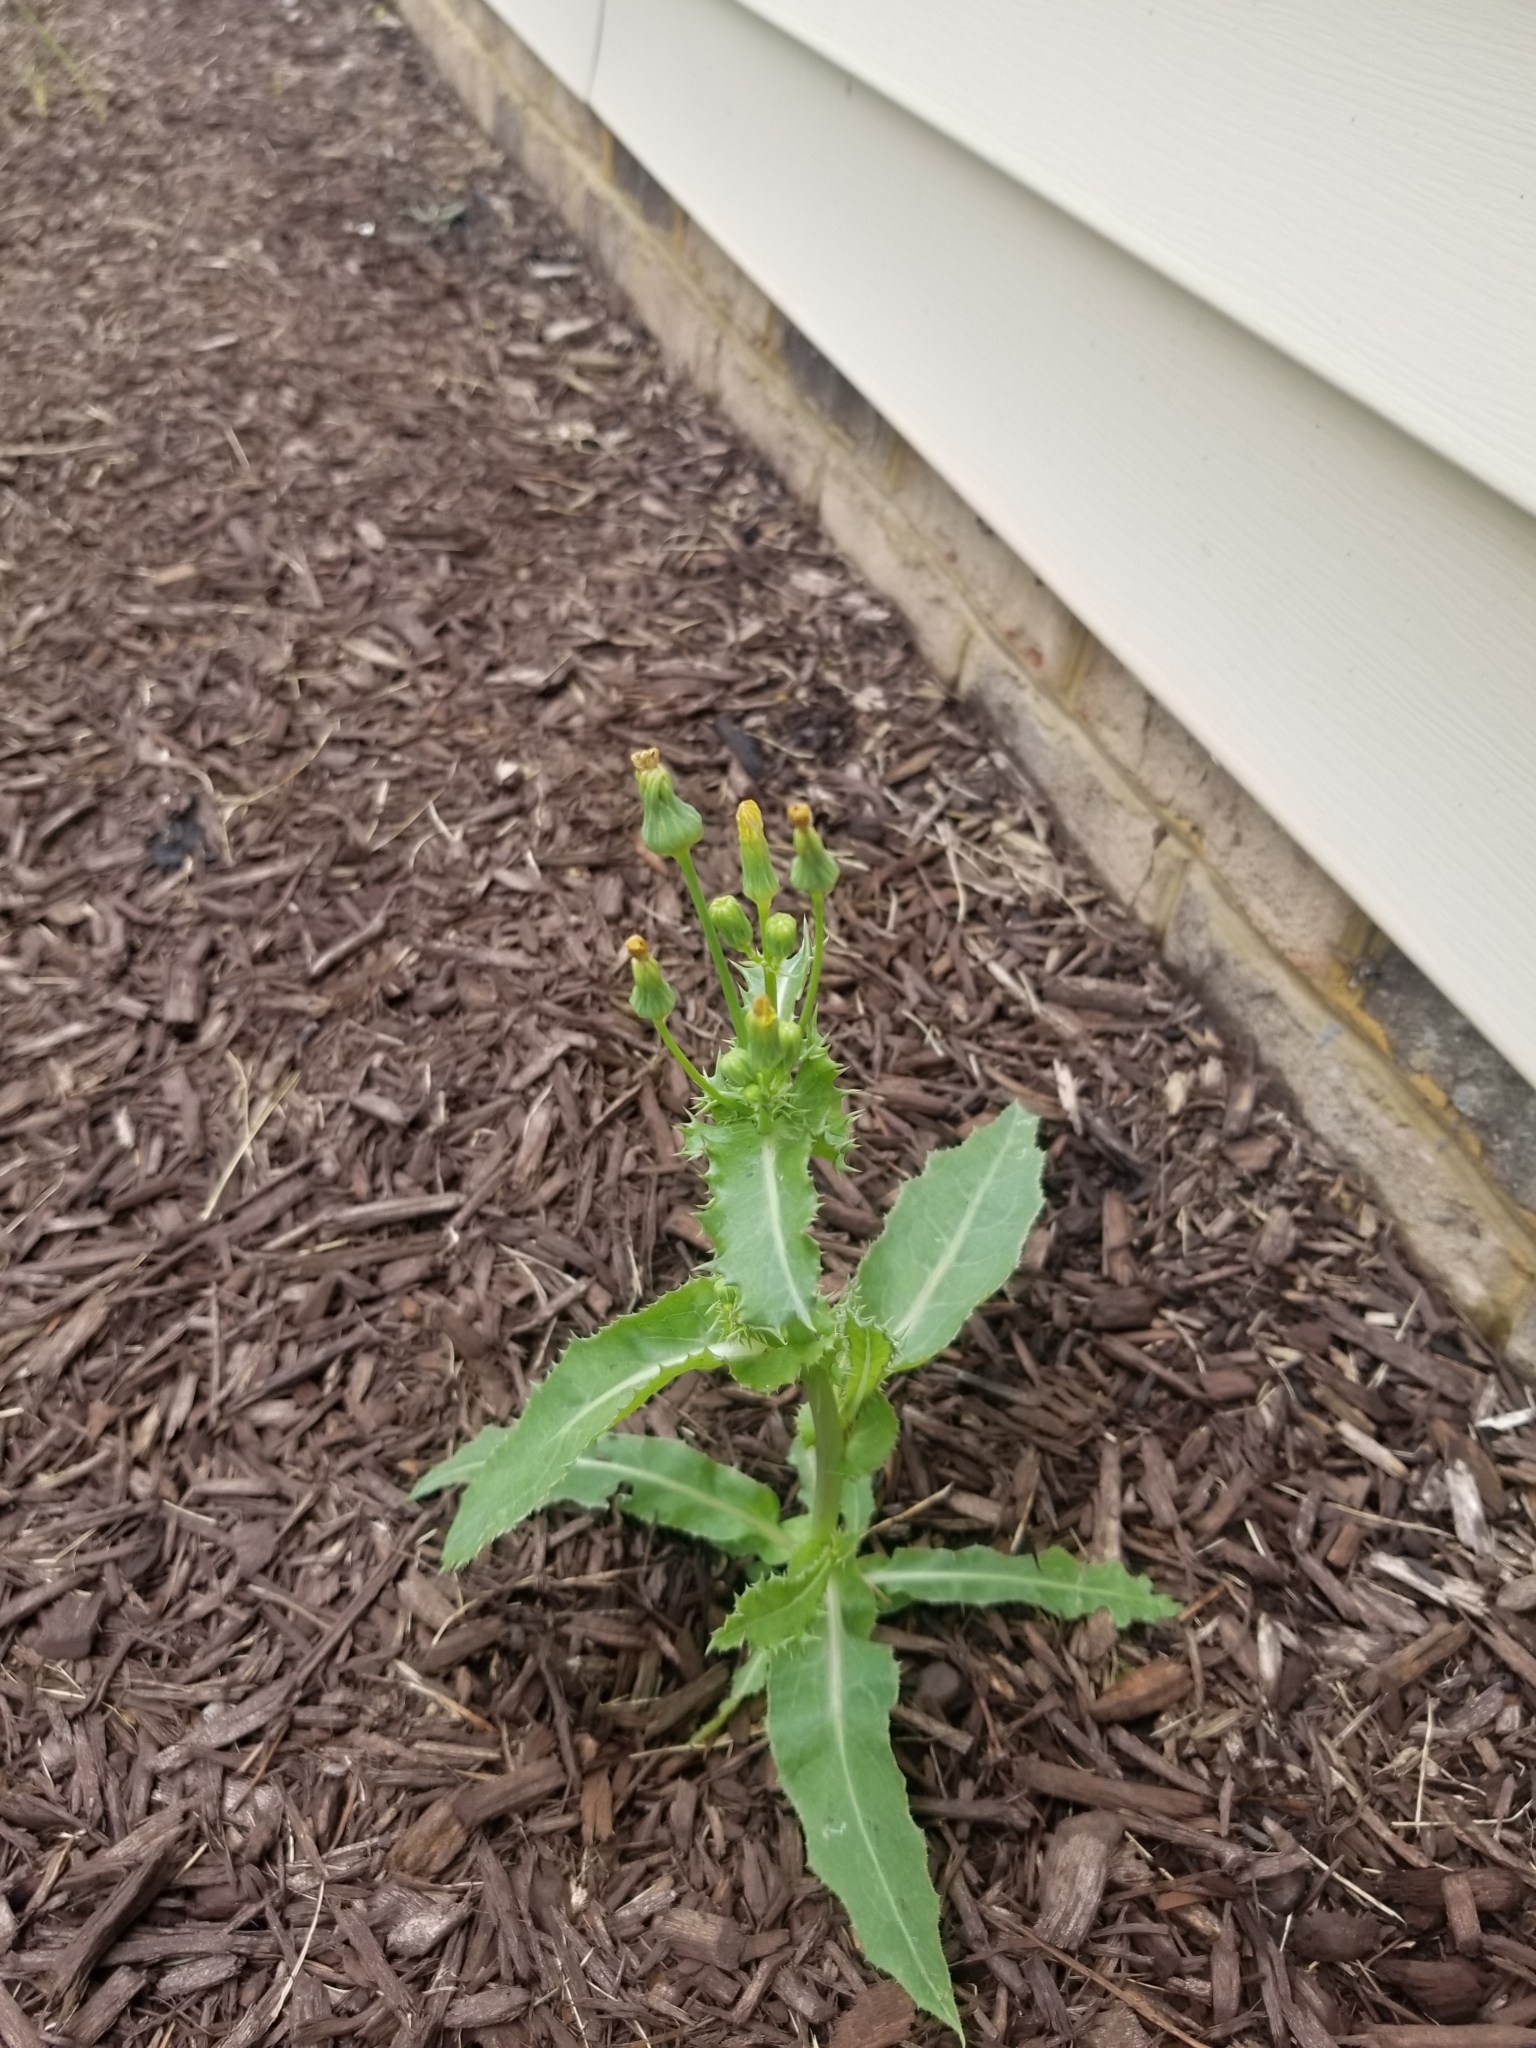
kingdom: Plantae
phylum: Tracheophyta
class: Magnoliopsida
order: Asterales
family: Asteraceae
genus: Sonchus
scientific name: Sonchus asper
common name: Prickly sow-thistle
